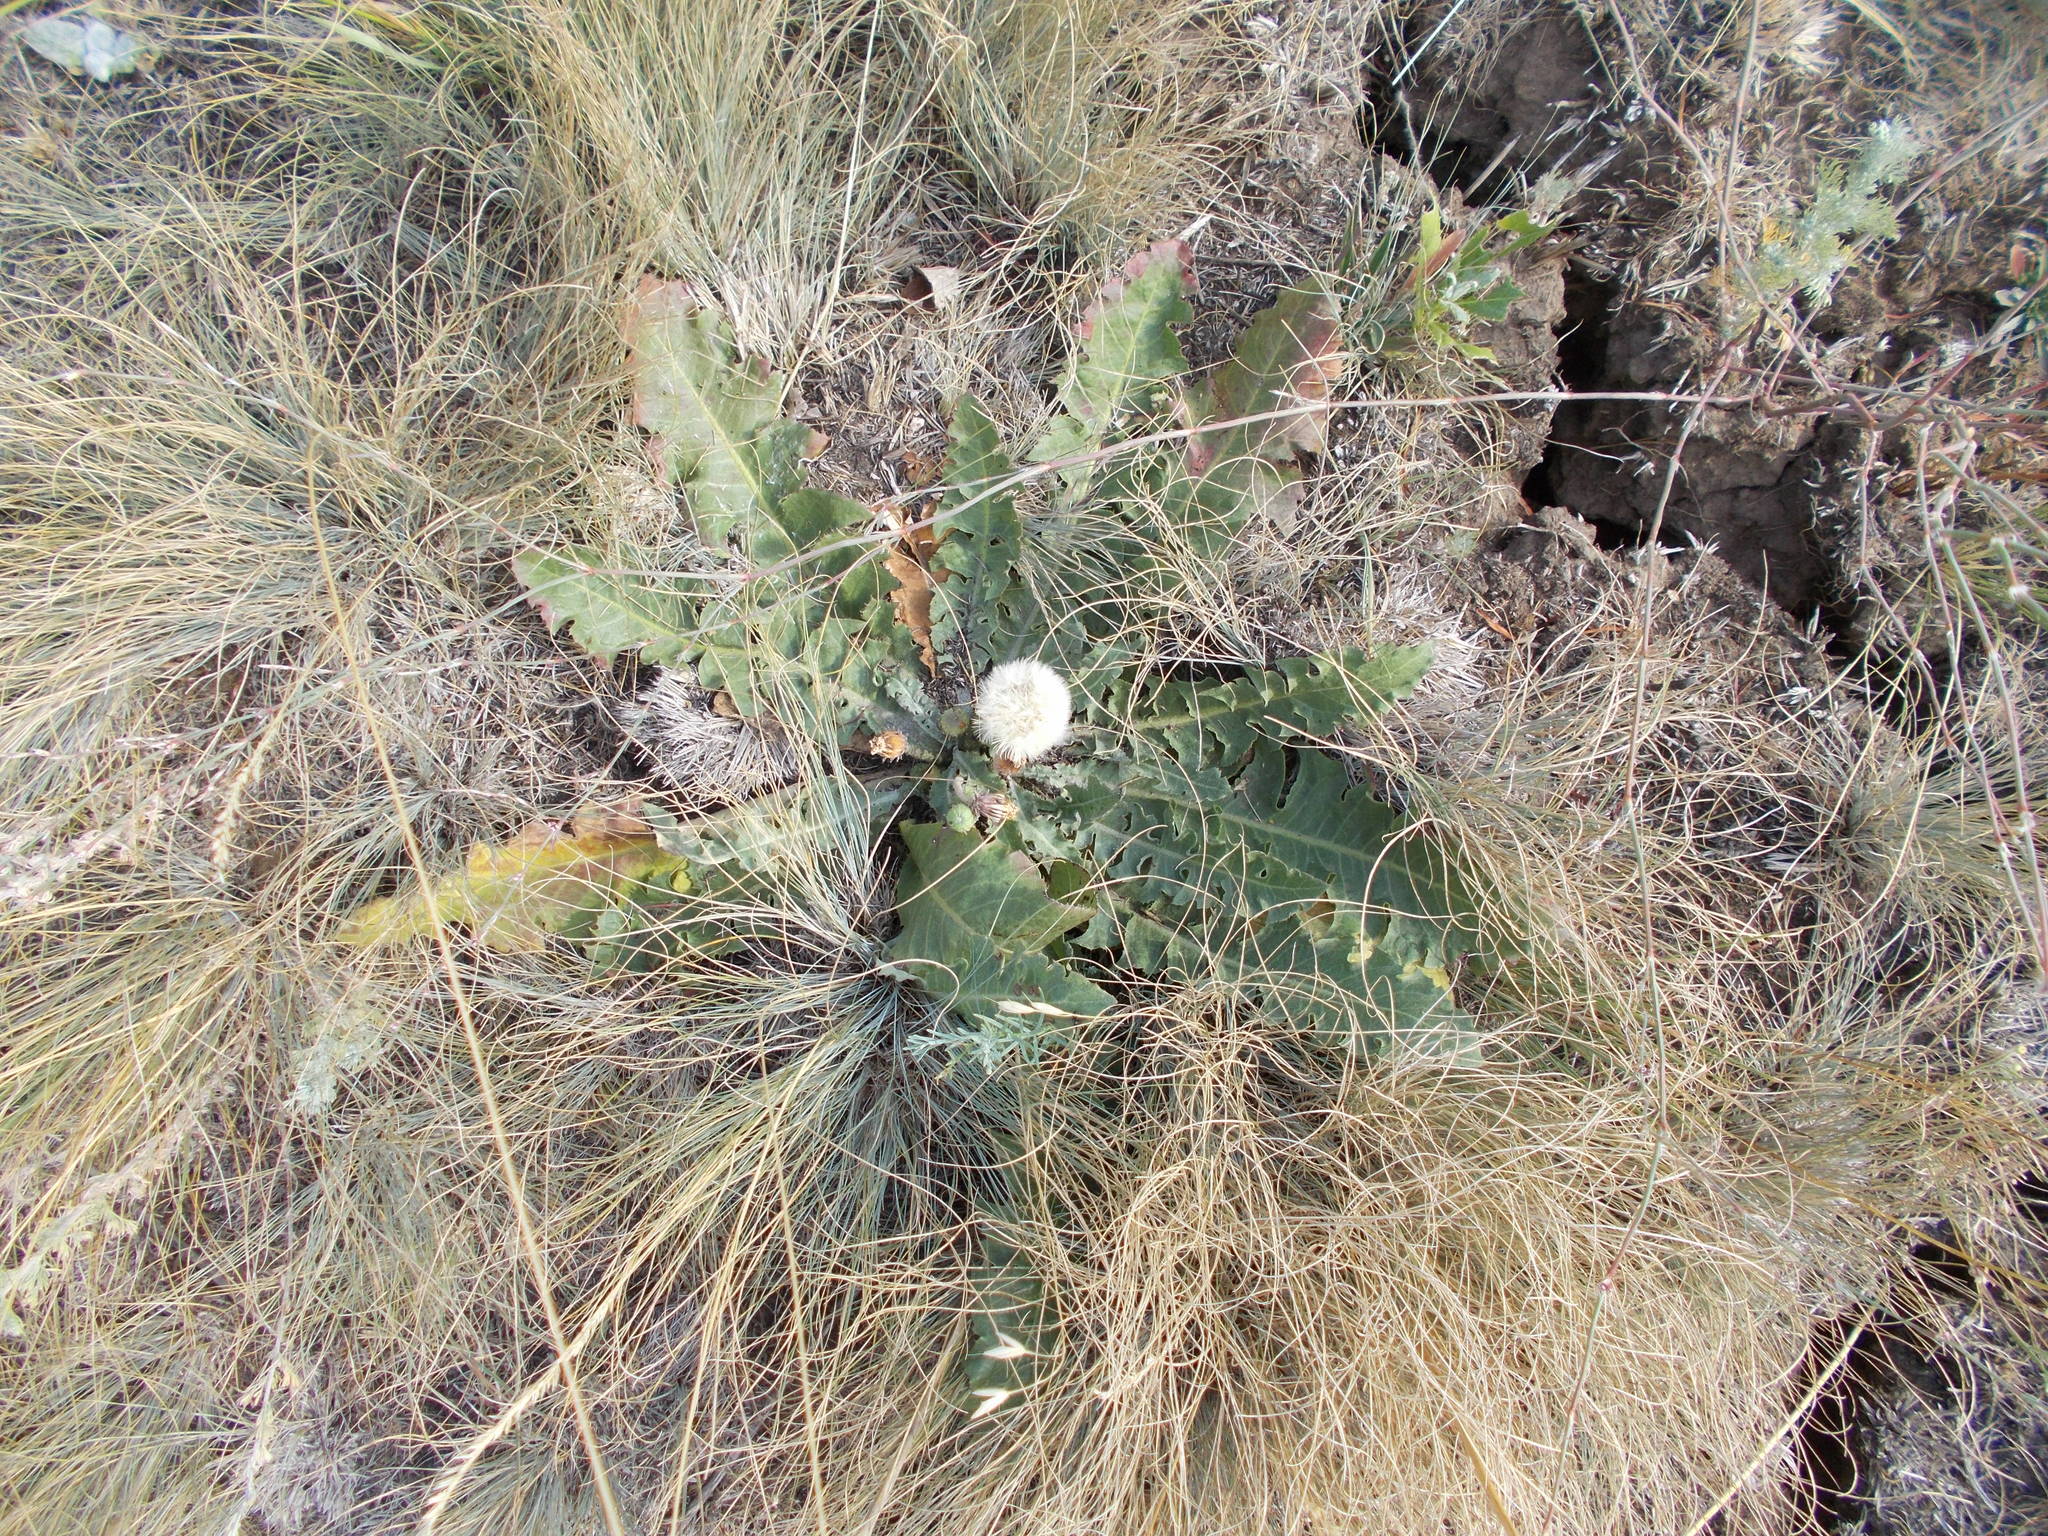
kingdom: Plantae
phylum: Tracheophyta
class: Magnoliopsida
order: Asterales
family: Asteraceae
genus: Taraxacum
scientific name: Taraxacum serotinum
